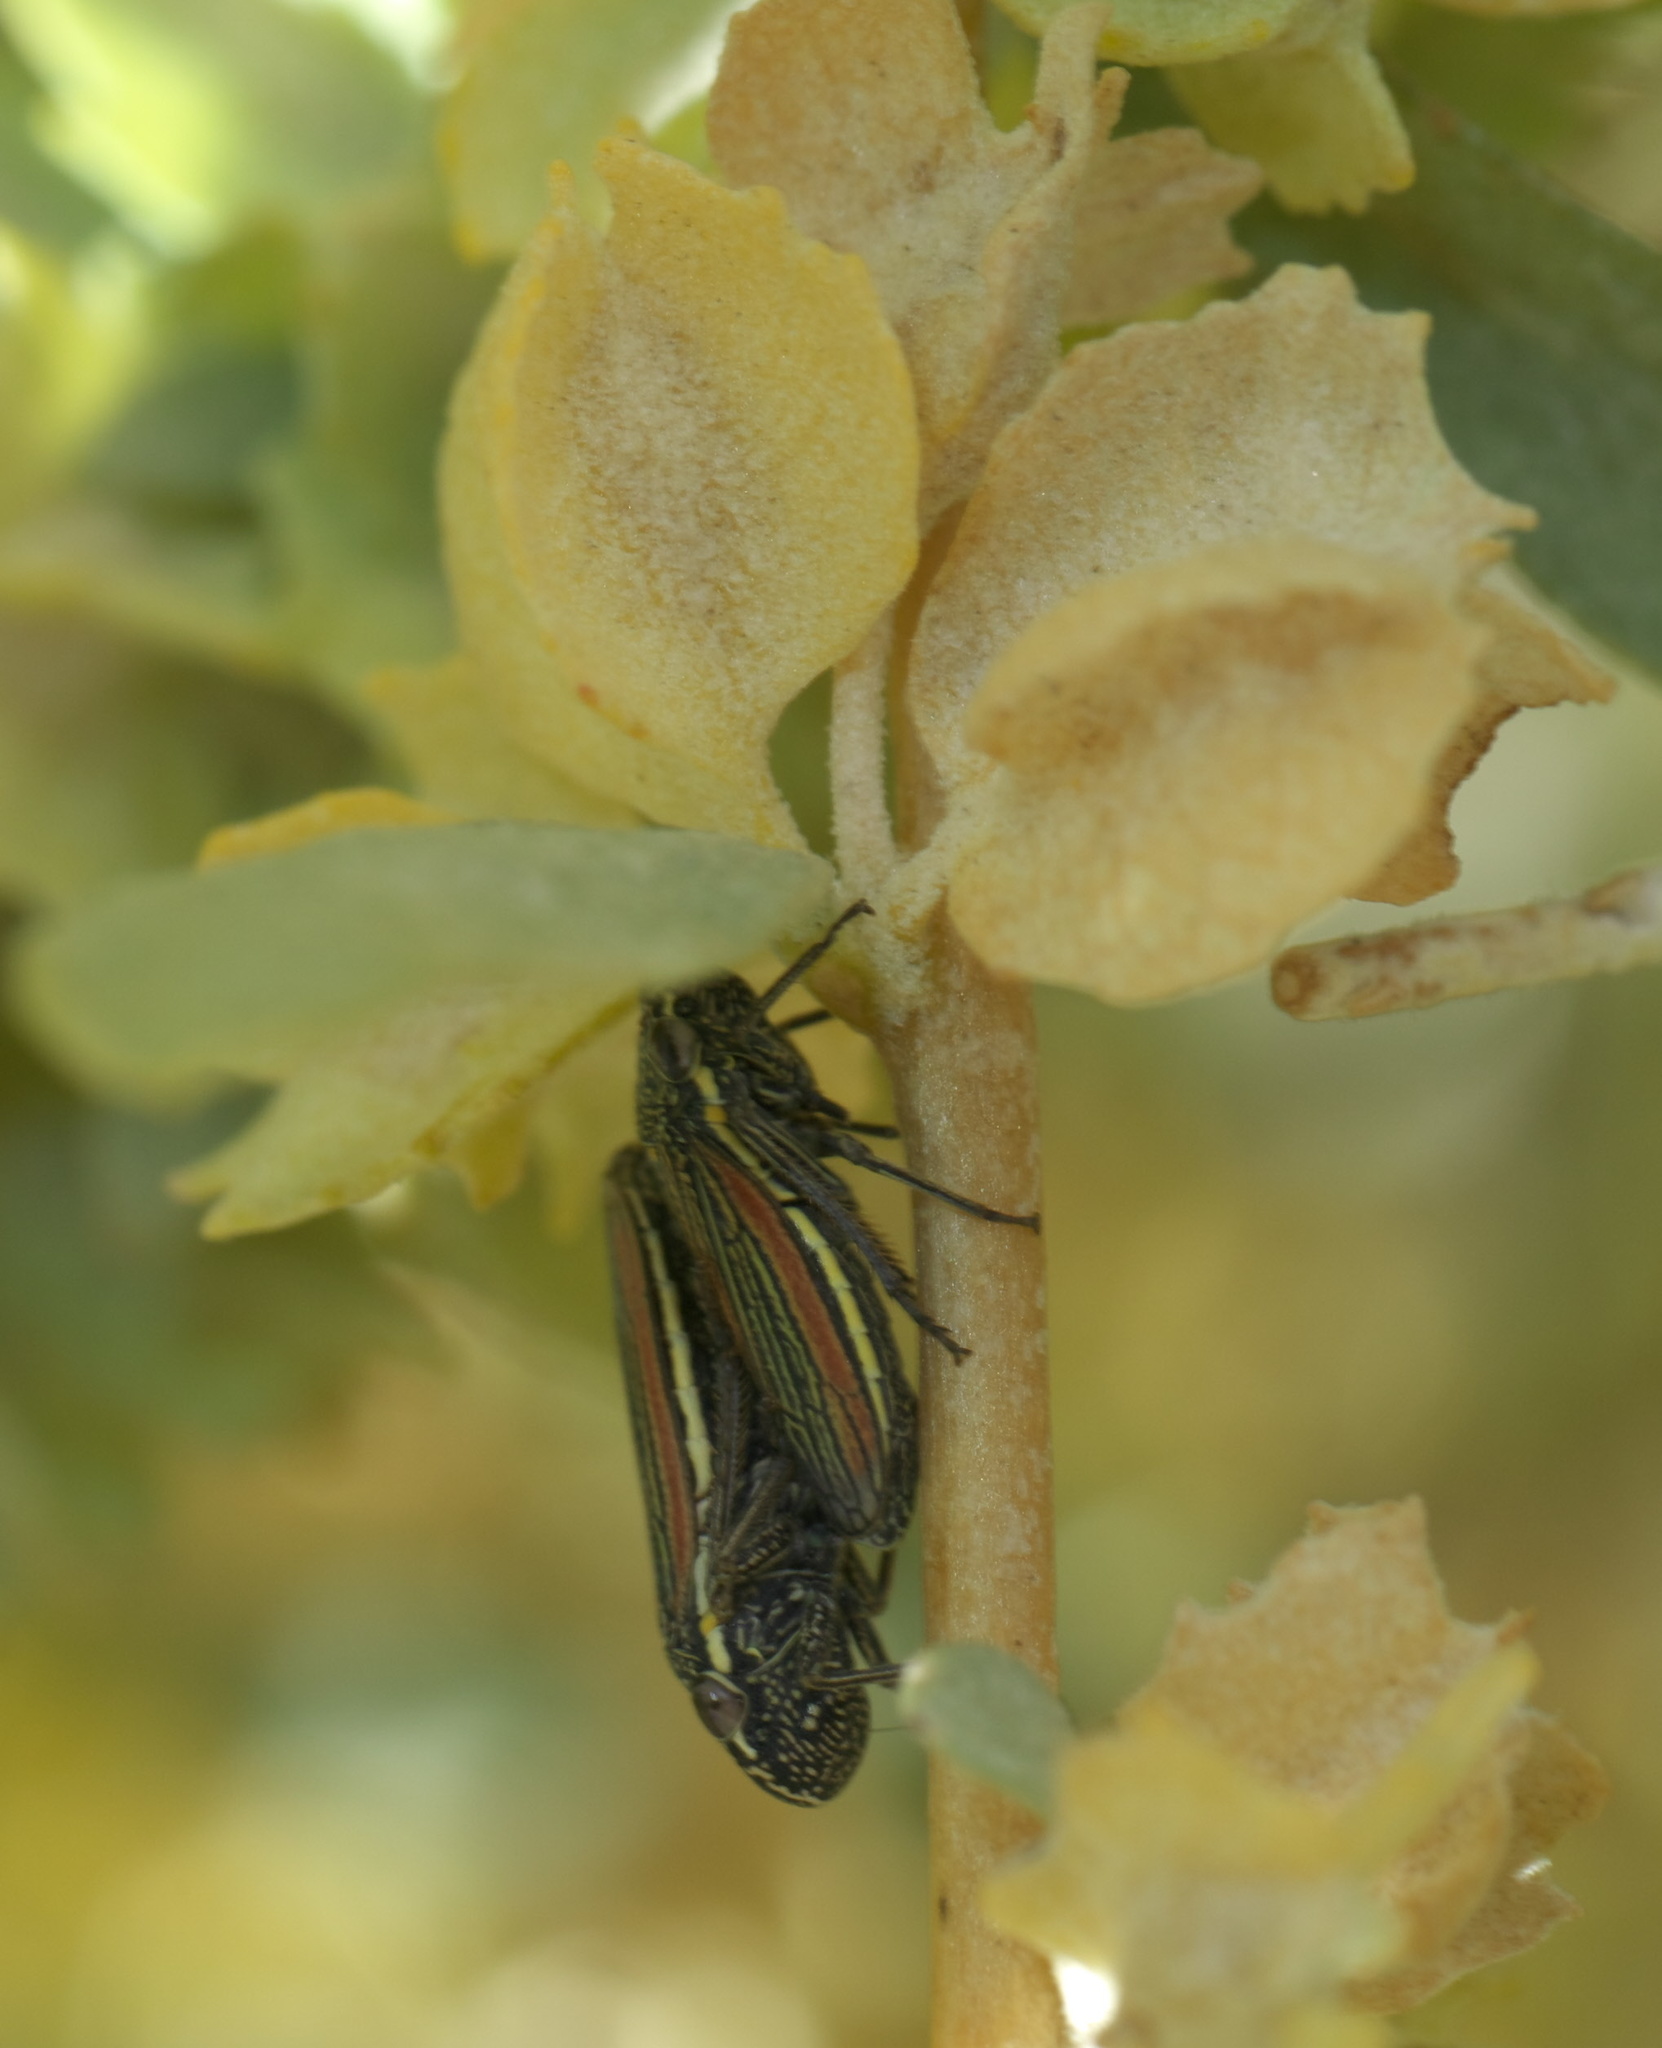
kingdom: Animalia
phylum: Arthropoda
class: Insecta
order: Hemiptera
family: Cicadellidae
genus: Cuerna
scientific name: Cuerna alpina
